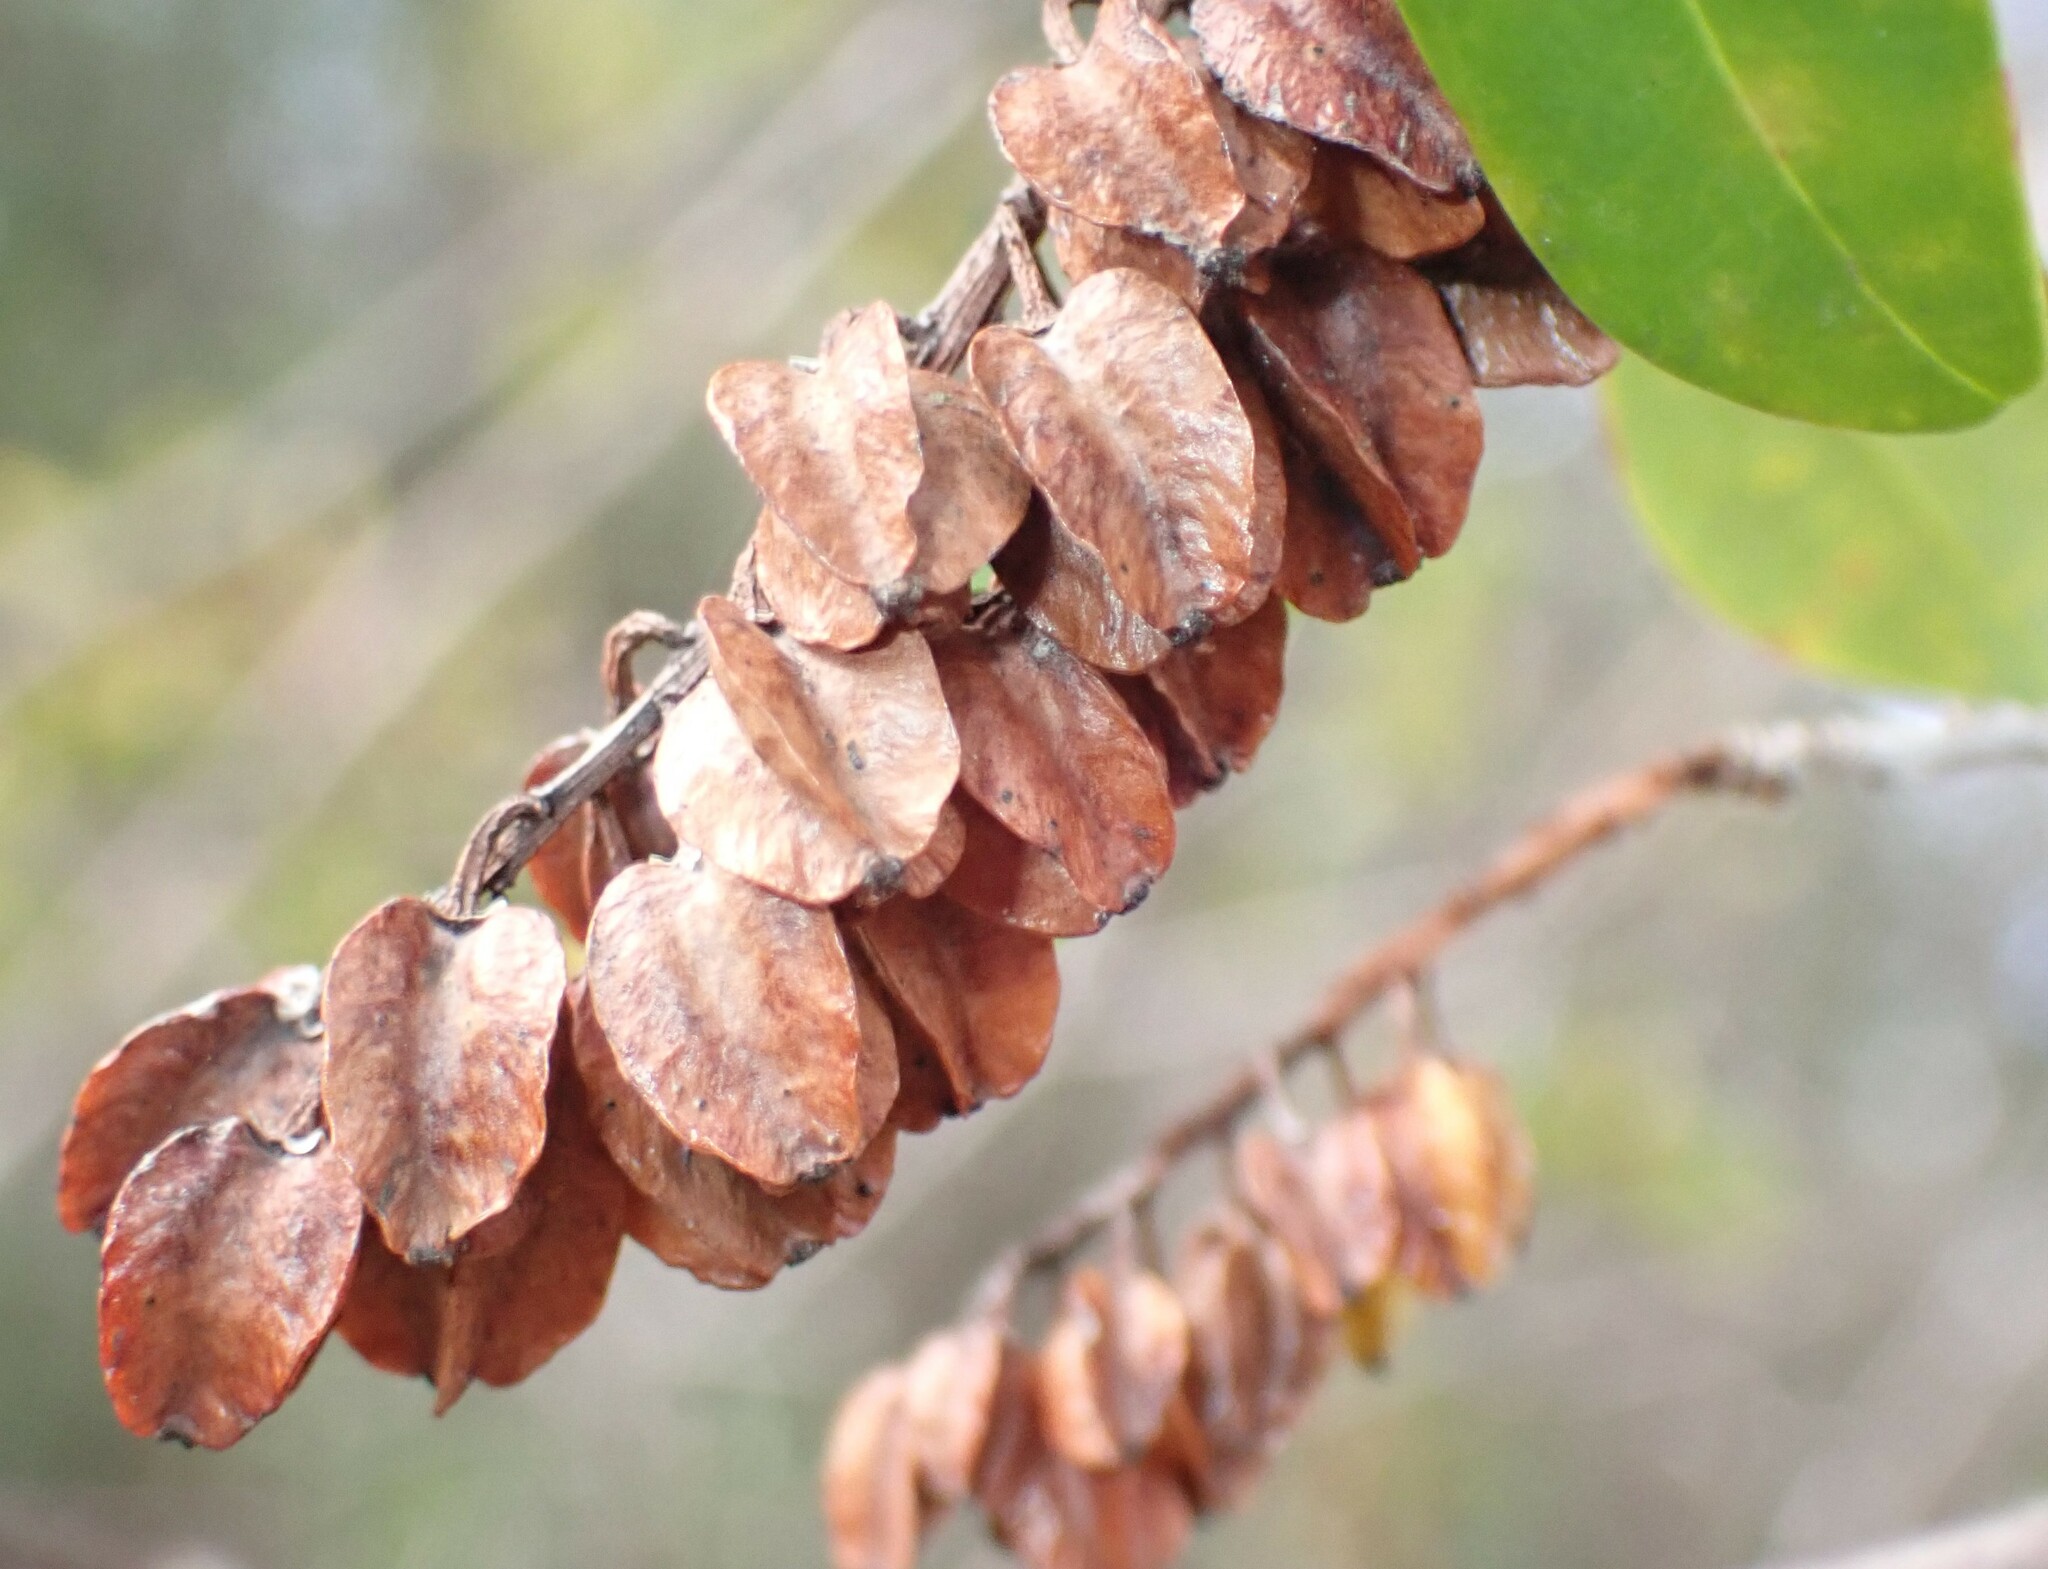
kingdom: Plantae
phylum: Tracheophyta
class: Magnoliopsida
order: Ericales
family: Cyrillaceae
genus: Cliftonia
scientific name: Cliftonia monophylla
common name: Titi
